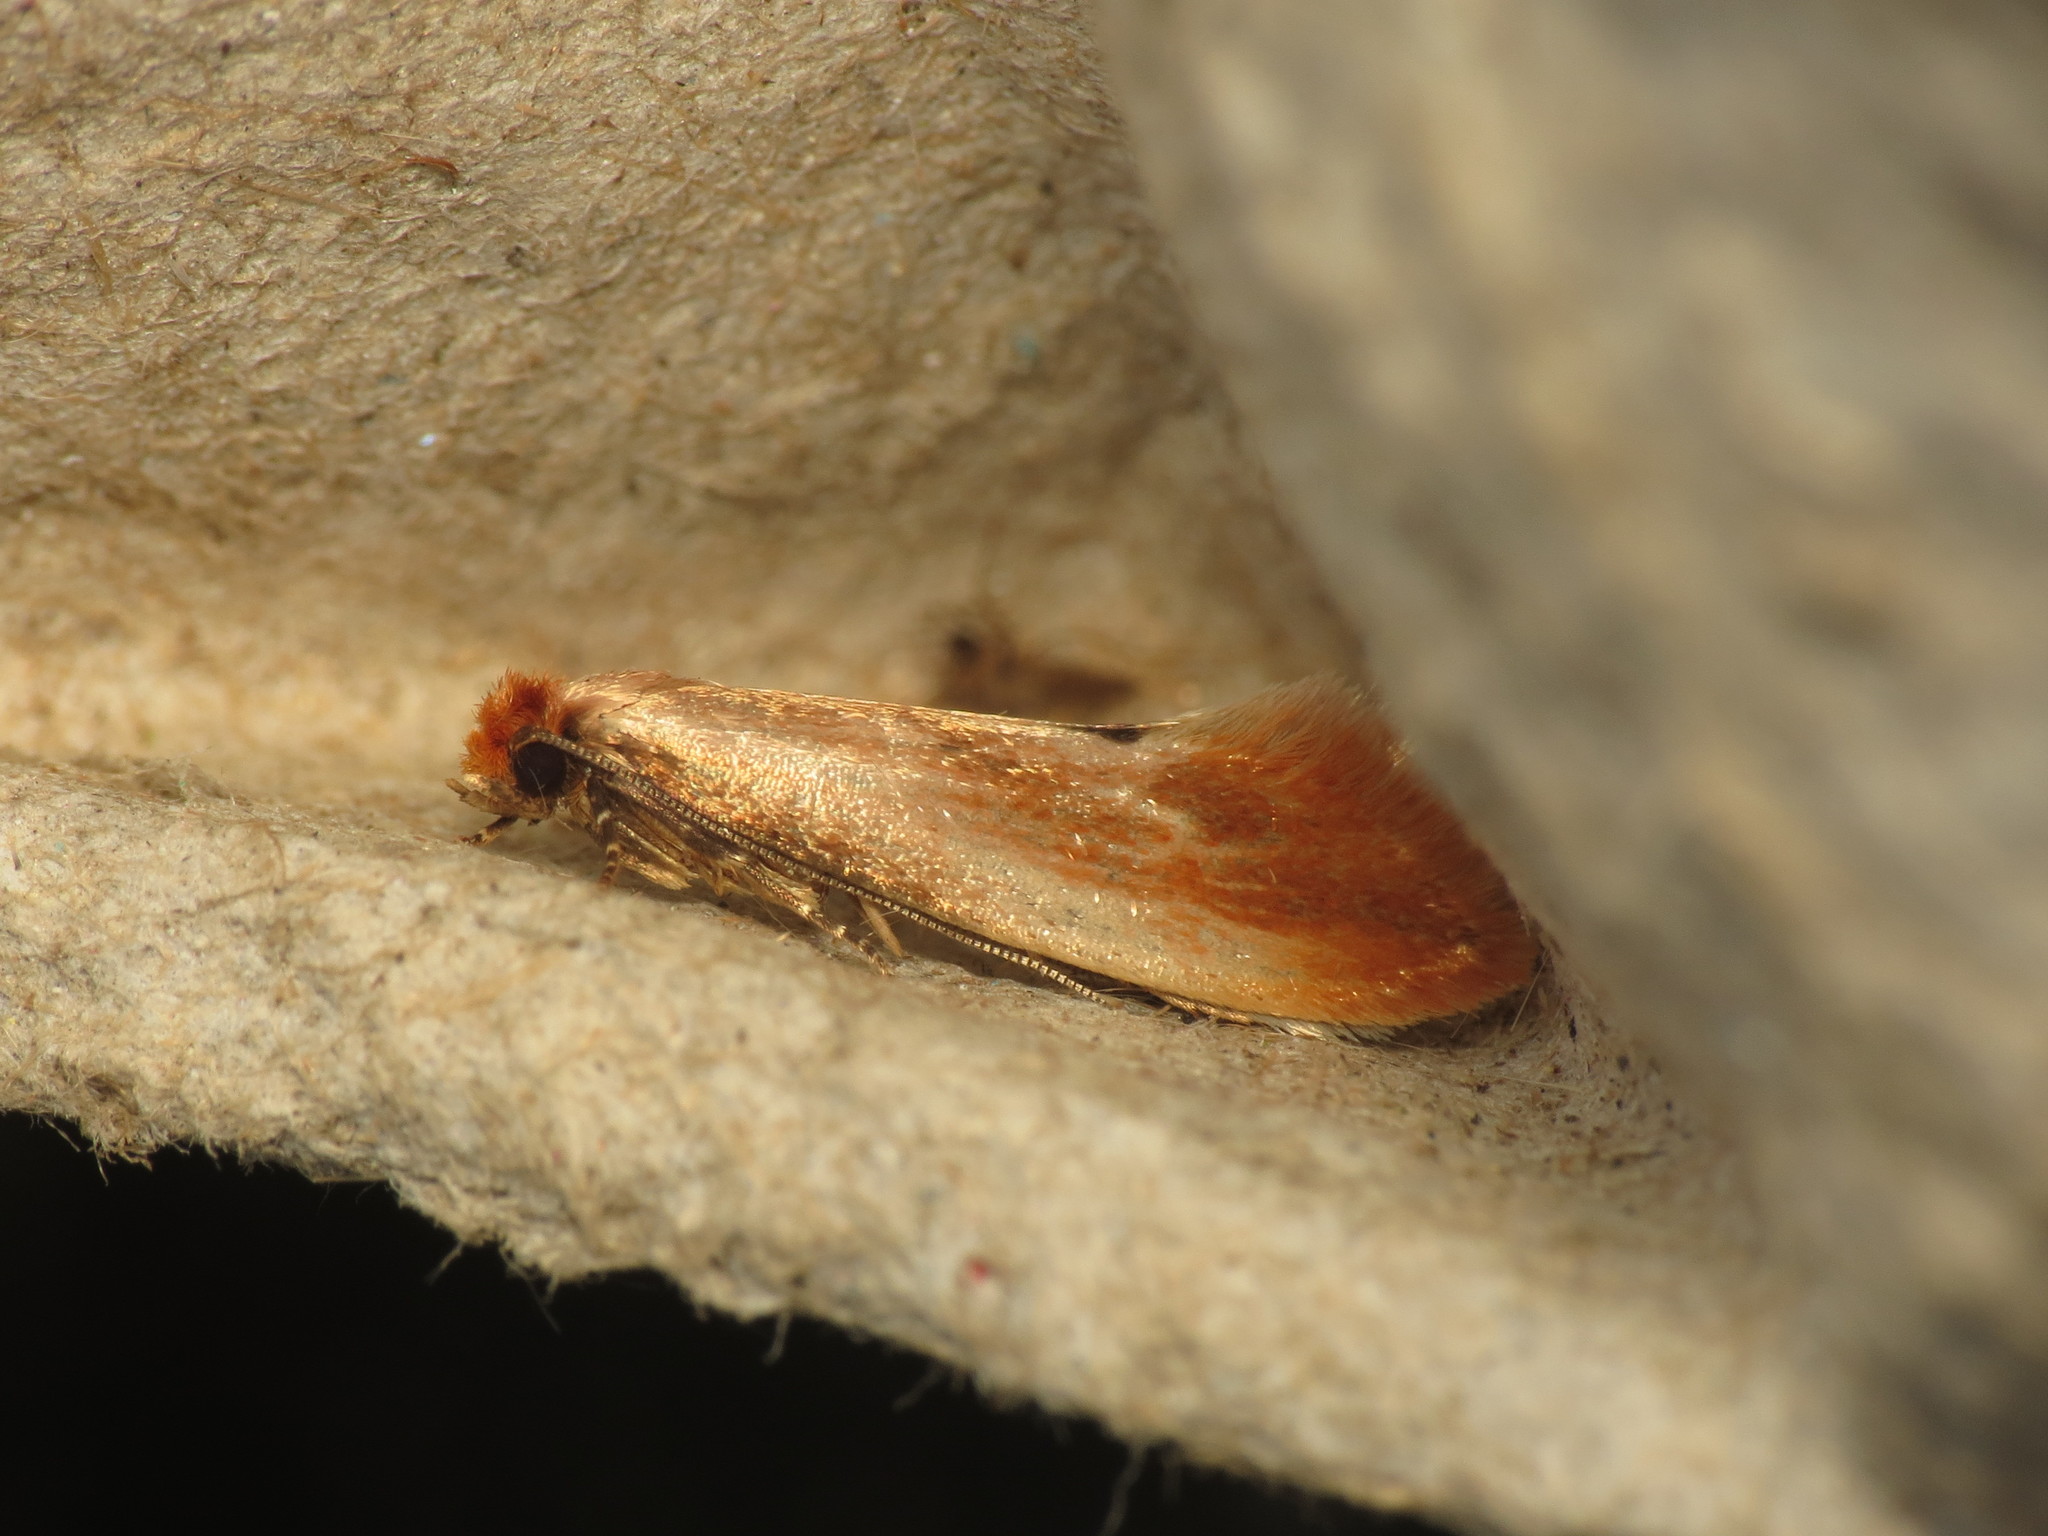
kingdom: Animalia
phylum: Arthropoda
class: Insecta
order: Lepidoptera
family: Tineidae
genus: Tinea
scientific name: Tinea semifulvella
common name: Fulvous clothes
